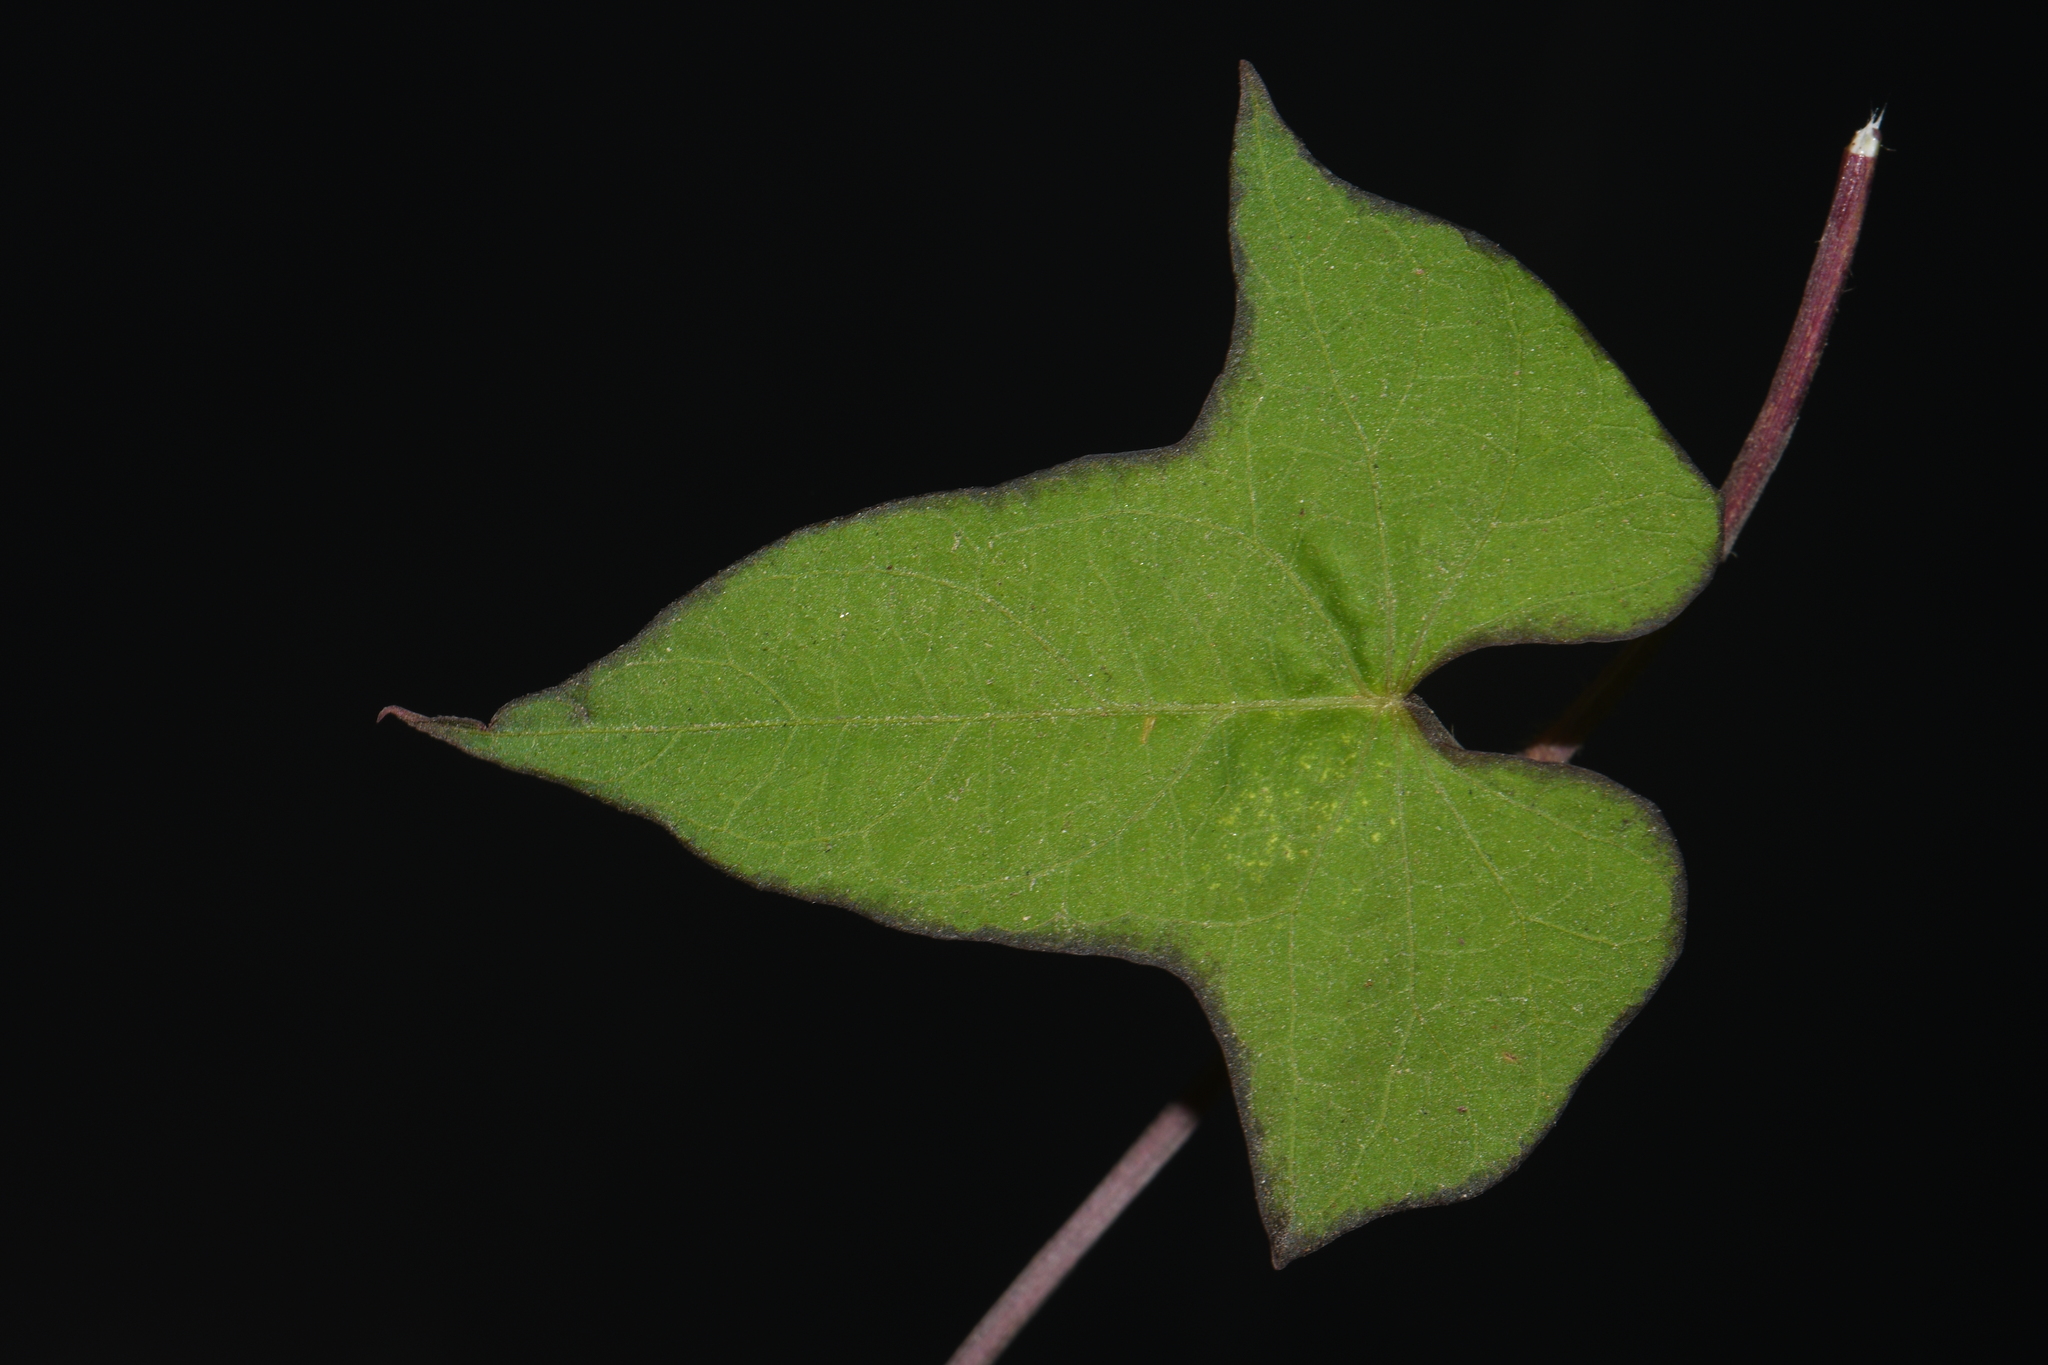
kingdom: Plantae
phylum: Tracheophyta
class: Magnoliopsida
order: Solanales
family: Convolvulaceae
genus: Ipomoea
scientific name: Ipomoea leucantha
